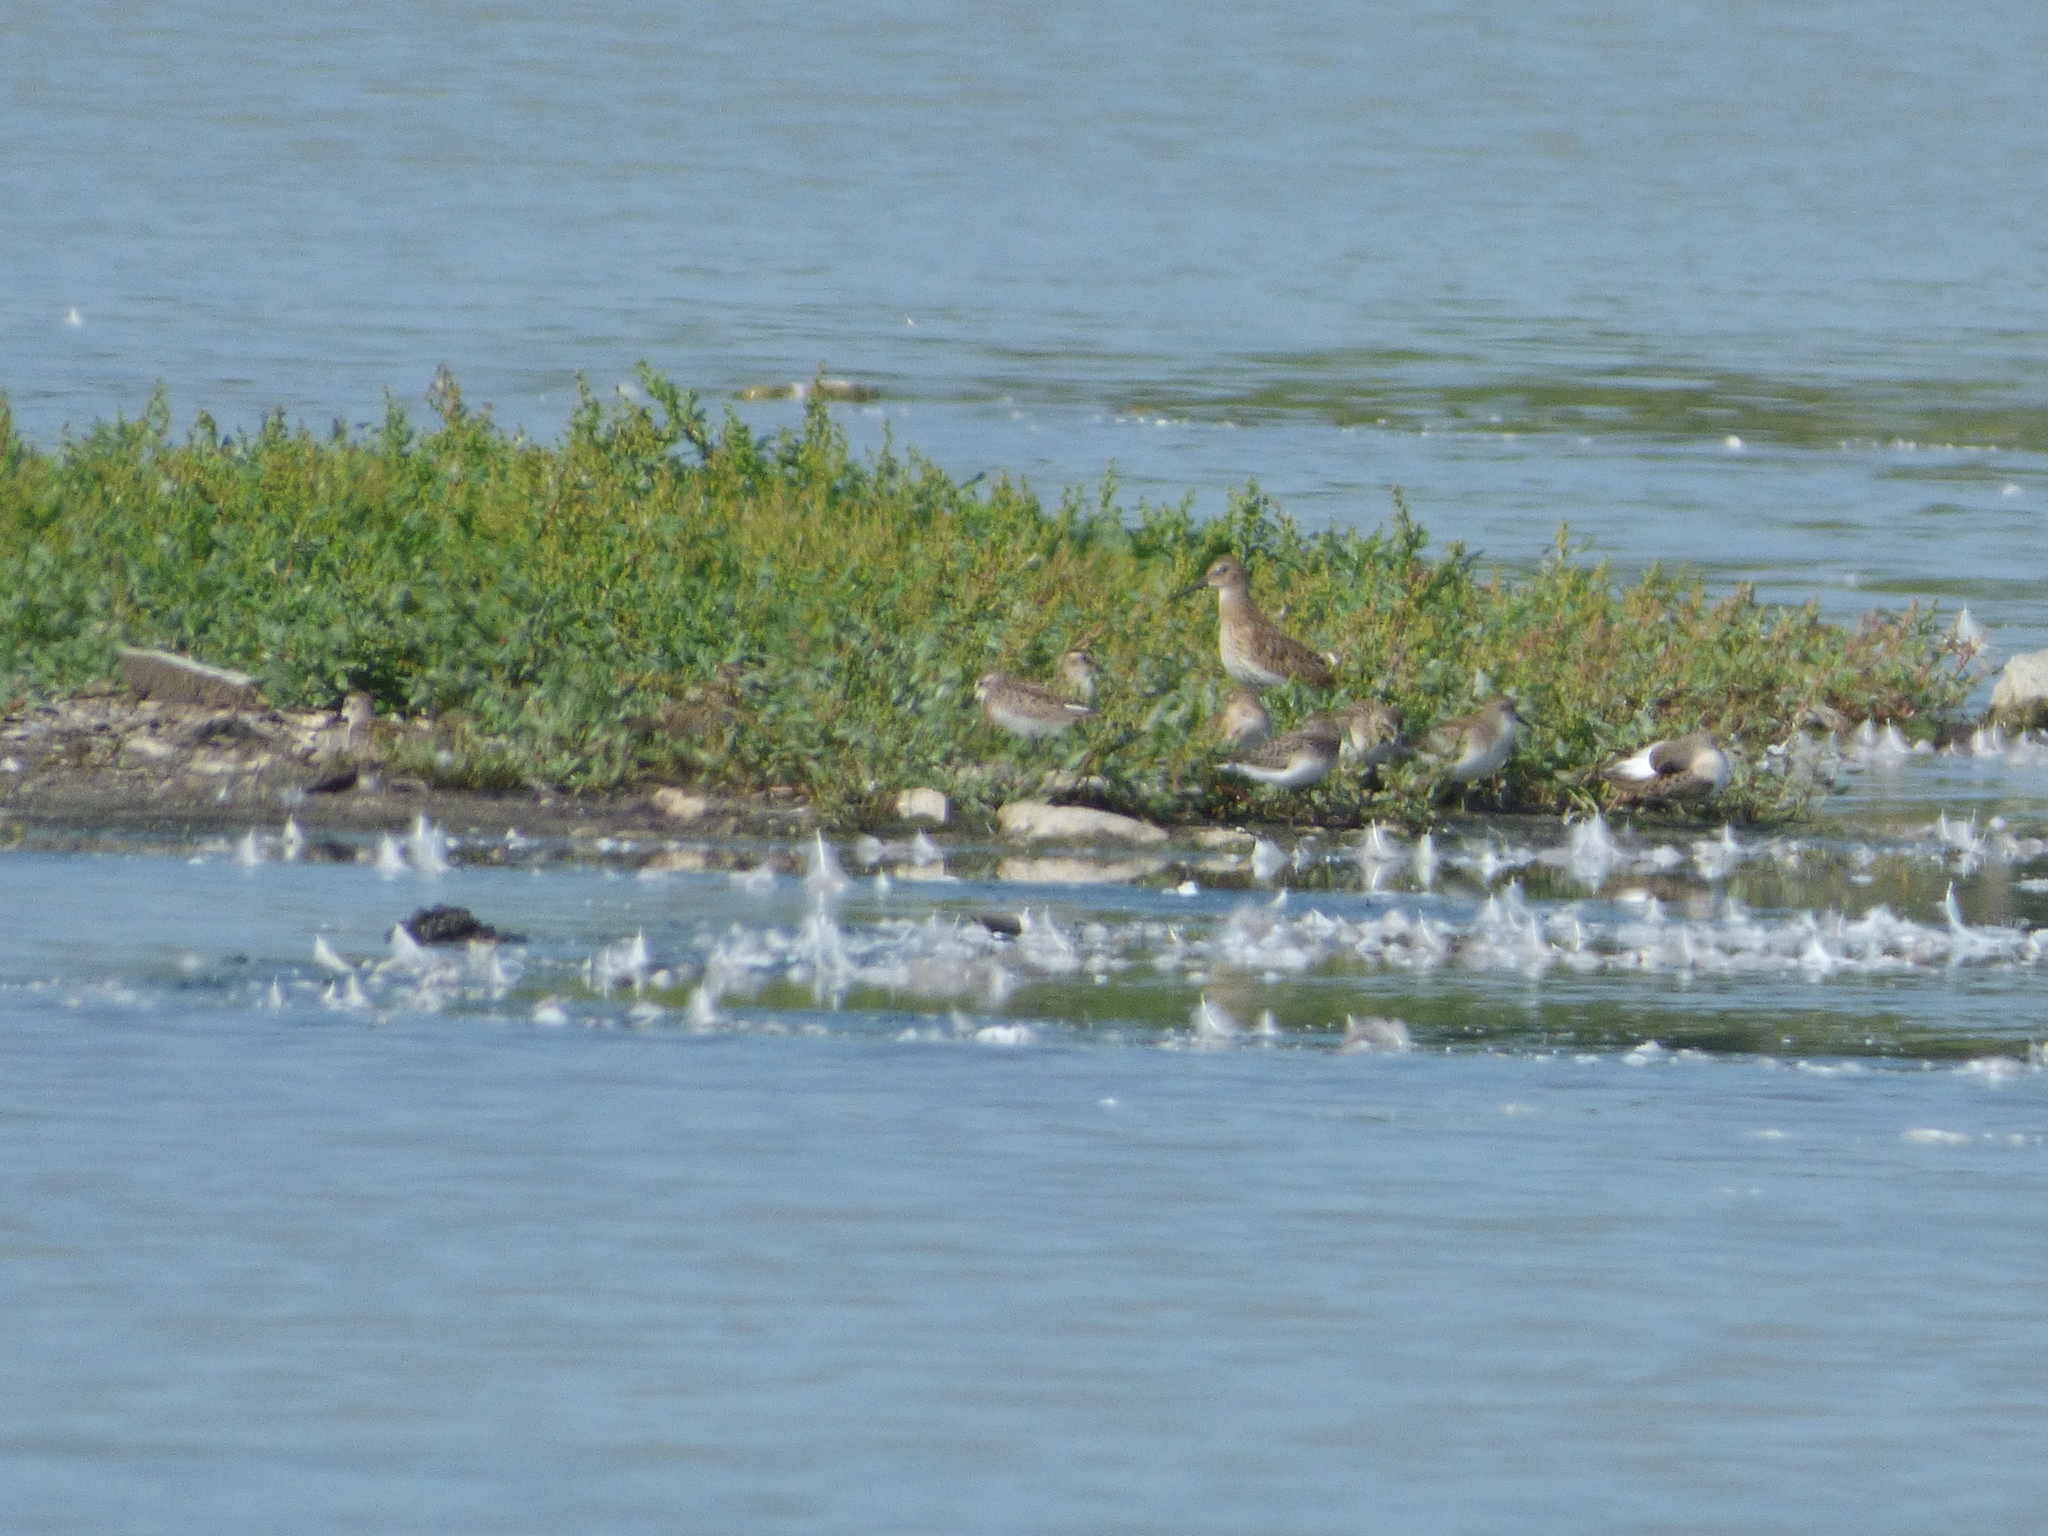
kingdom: Animalia
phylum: Chordata
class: Aves
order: Charadriiformes
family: Scolopacidae
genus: Calidris
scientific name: Calidris alpina
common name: Dunlin
